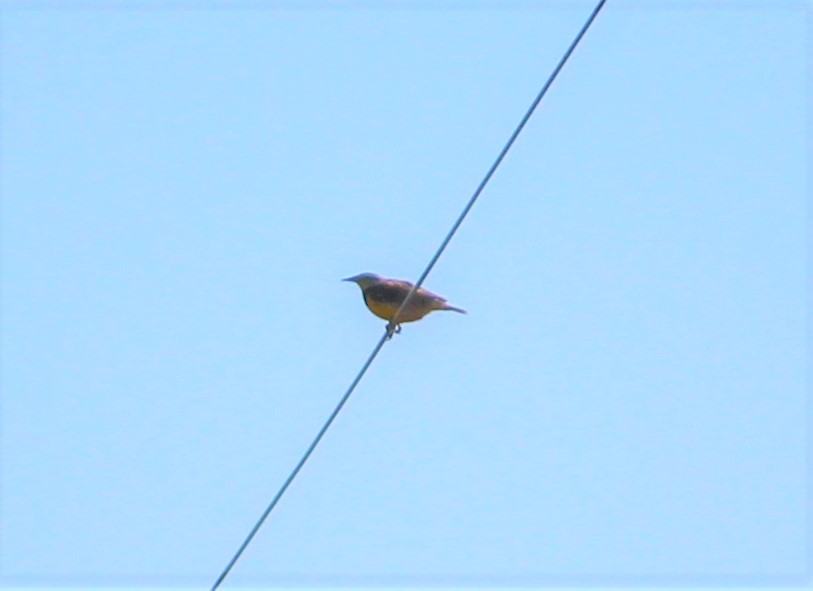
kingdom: Animalia
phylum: Chordata
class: Aves
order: Passeriformes
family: Icteridae
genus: Sturnella
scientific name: Sturnella magna
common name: Eastern meadowlark
